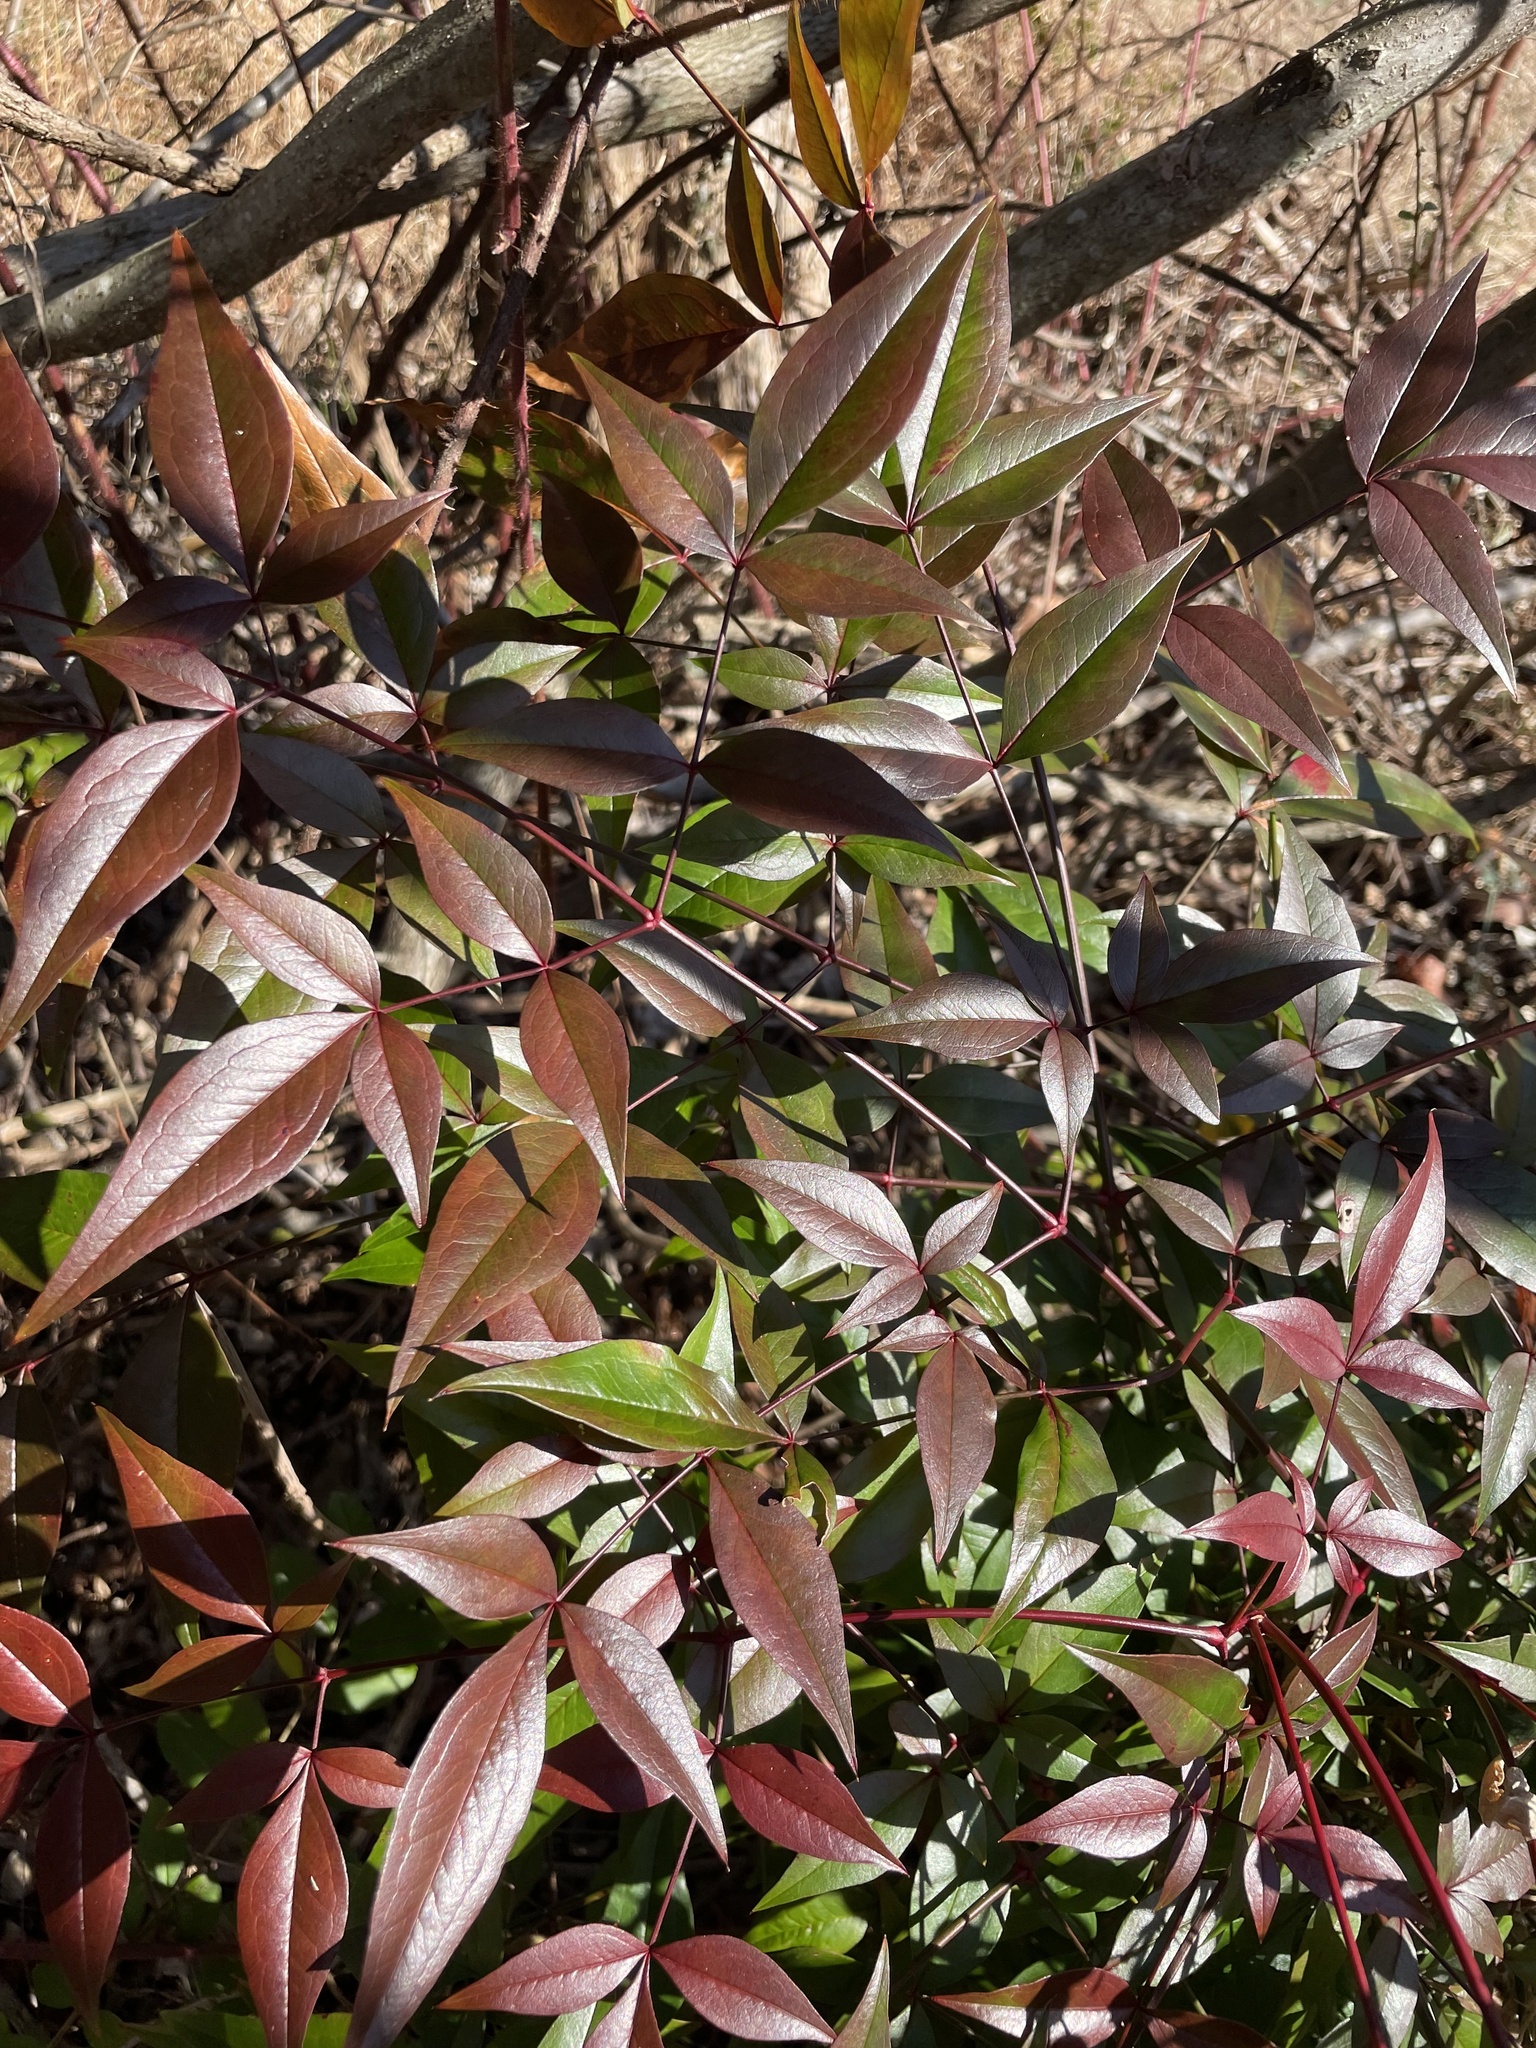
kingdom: Plantae
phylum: Tracheophyta
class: Magnoliopsida
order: Ranunculales
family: Berberidaceae
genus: Nandina
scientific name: Nandina domestica
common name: Sacred bamboo
